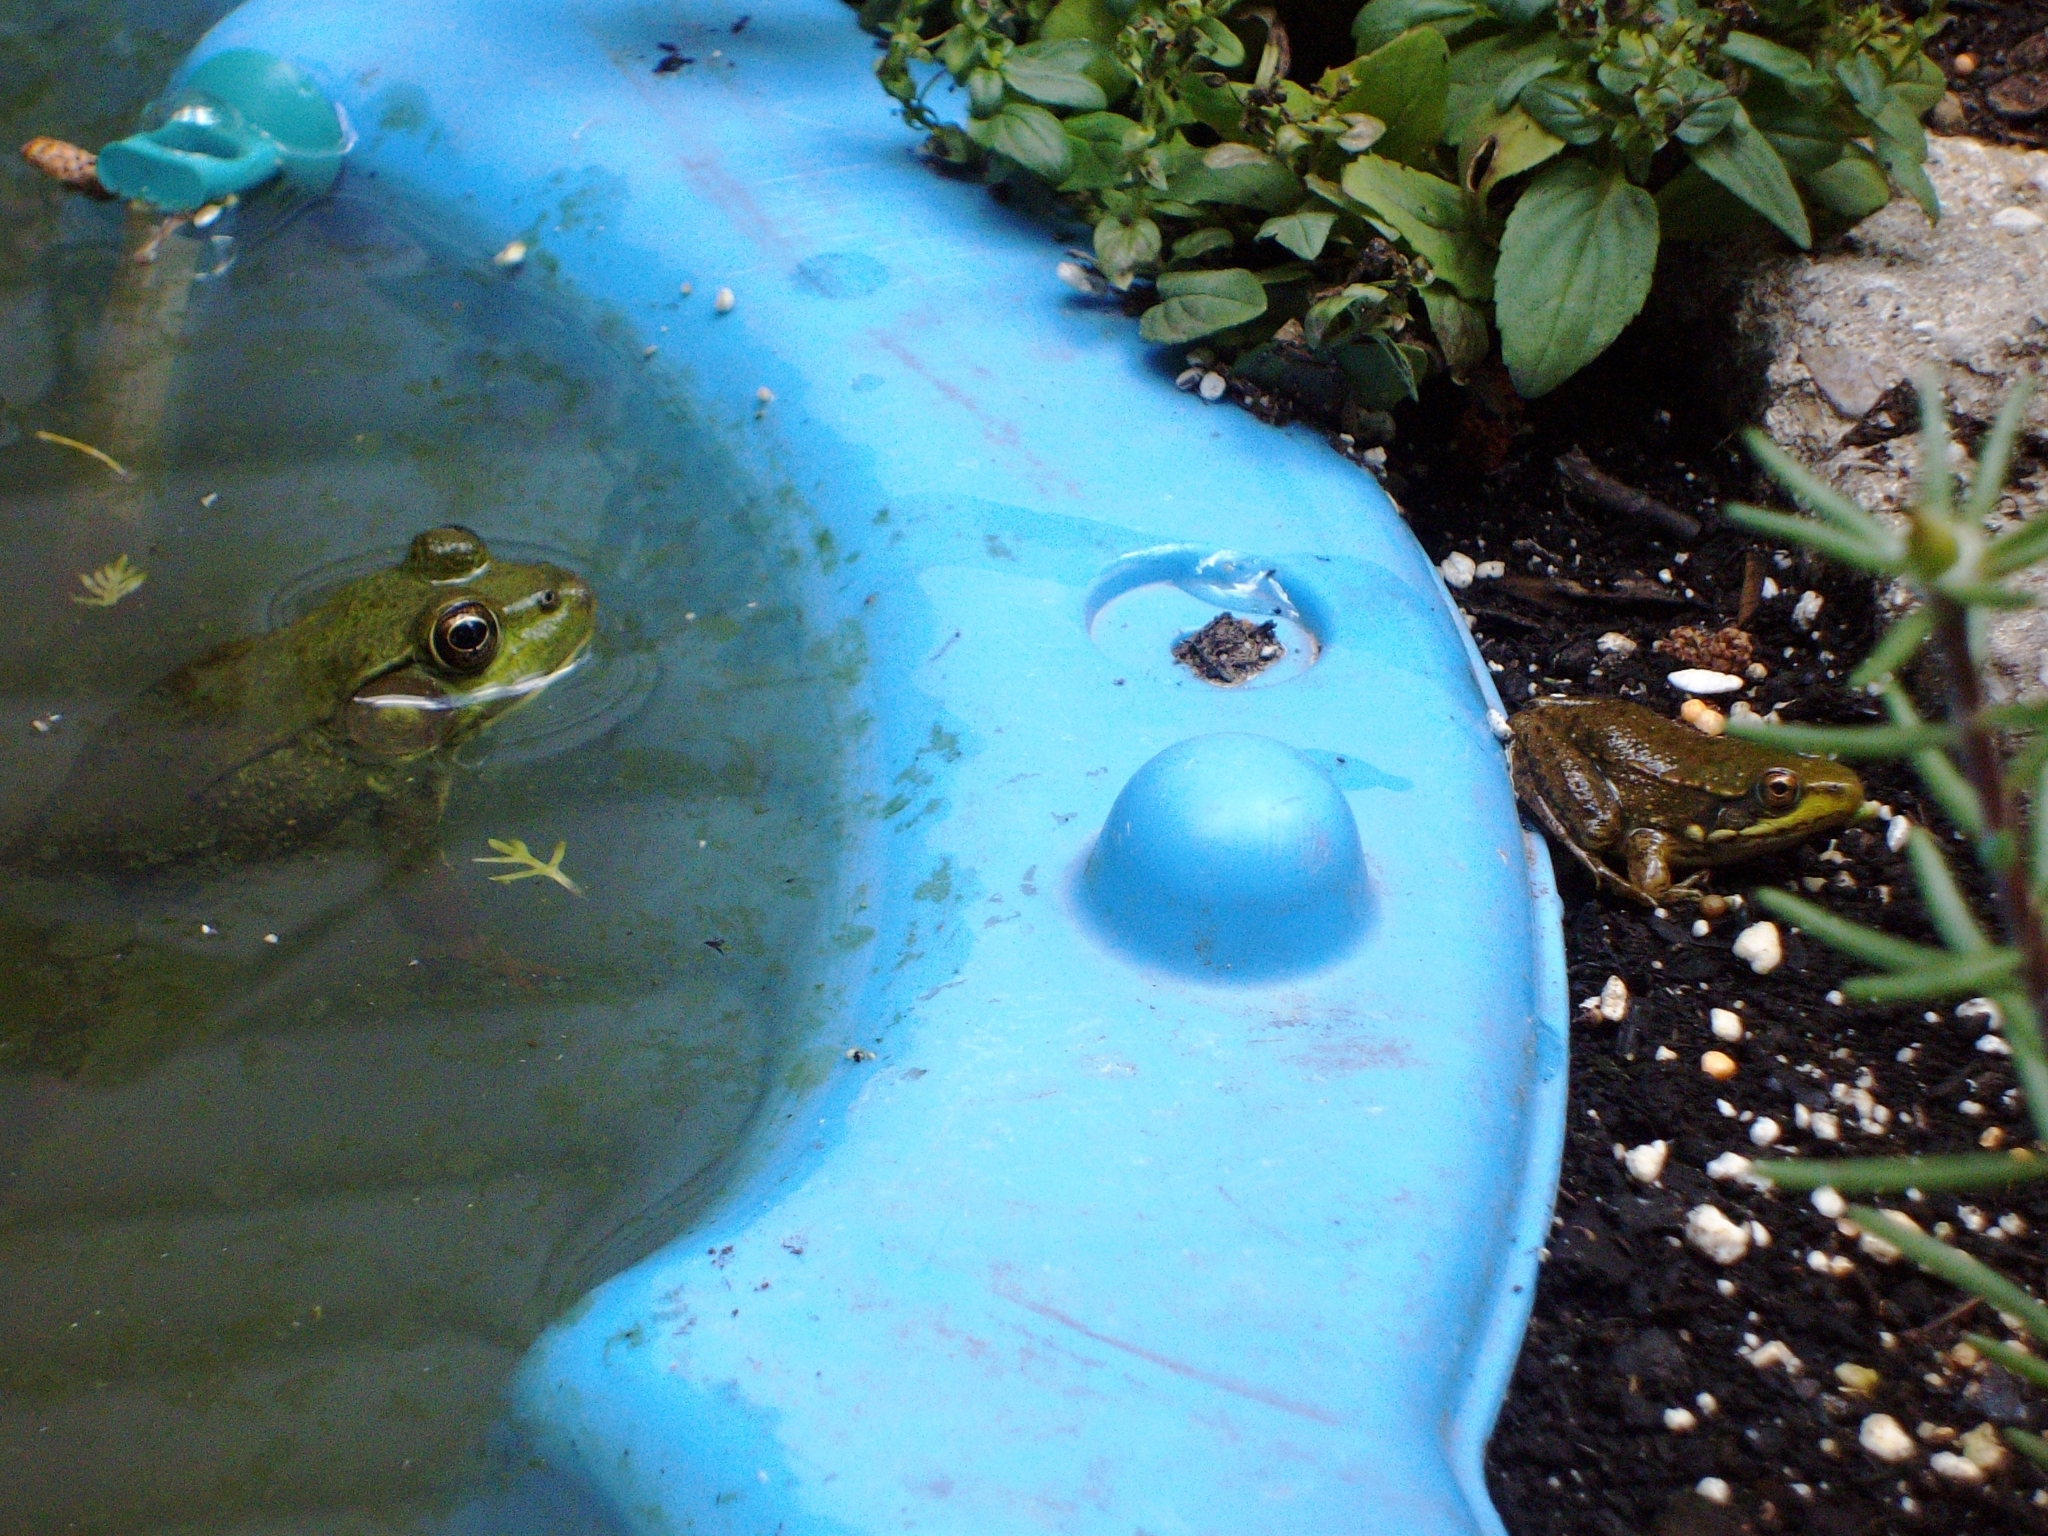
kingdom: Animalia
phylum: Chordata
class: Amphibia
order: Anura
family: Ranidae
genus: Lithobates
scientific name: Lithobates clamitans
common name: Green frog
